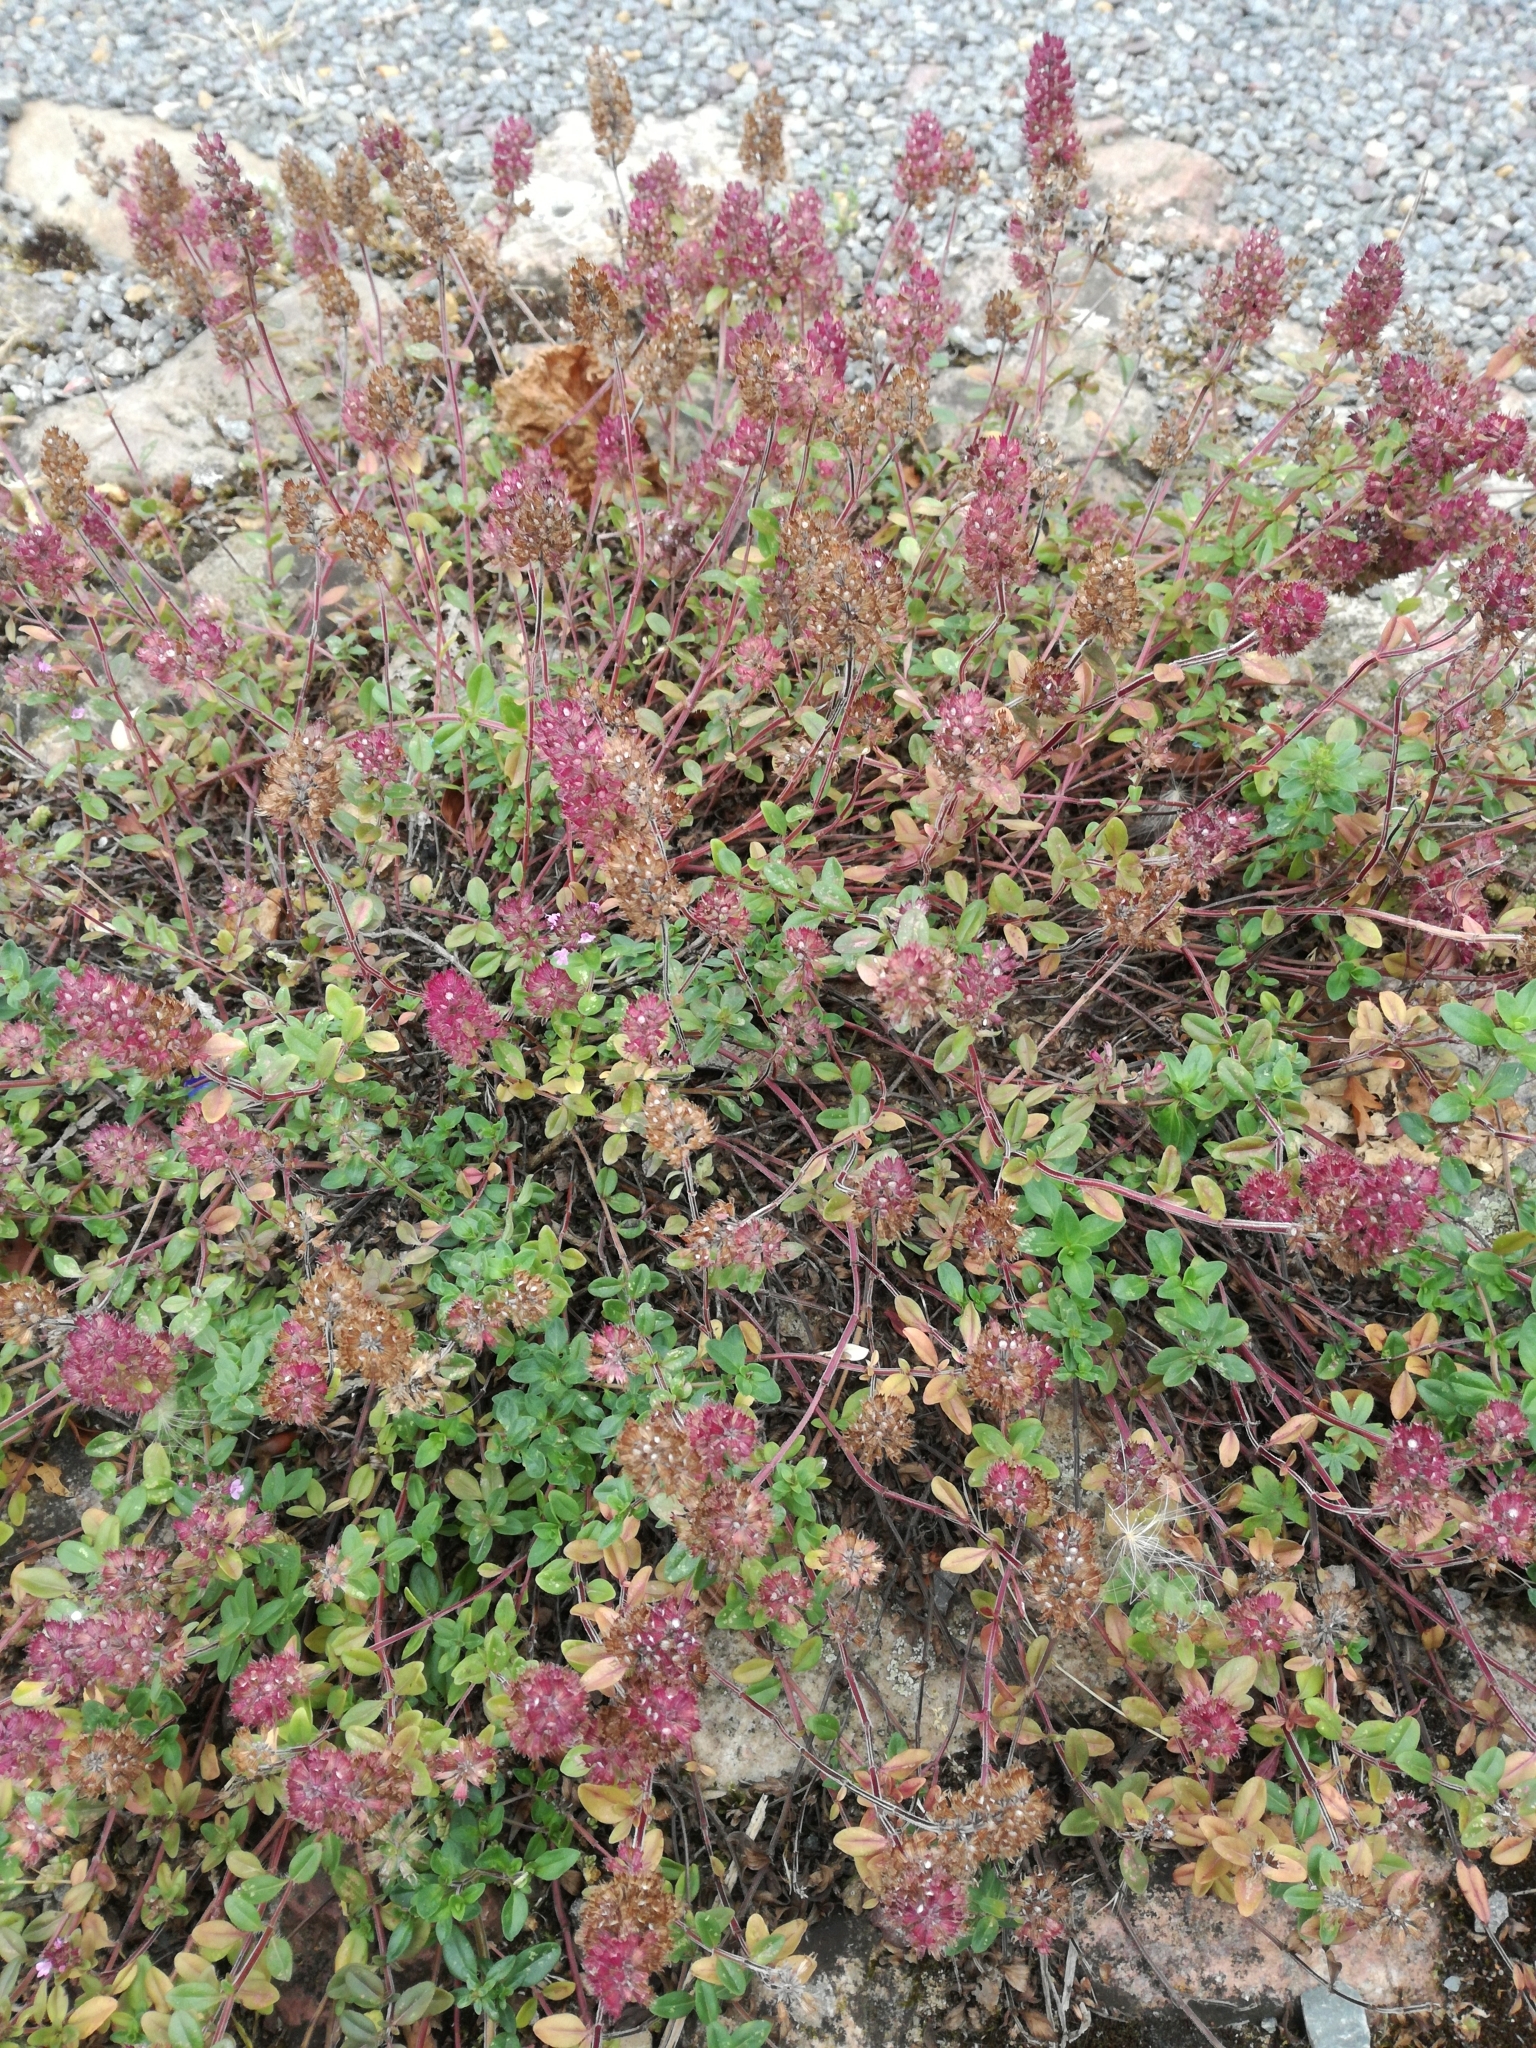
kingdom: Plantae
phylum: Tracheophyta
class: Magnoliopsida
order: Lamiales
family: Lamiaceae
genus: Thymus
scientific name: Thymus pulegioides
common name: Large thyme
